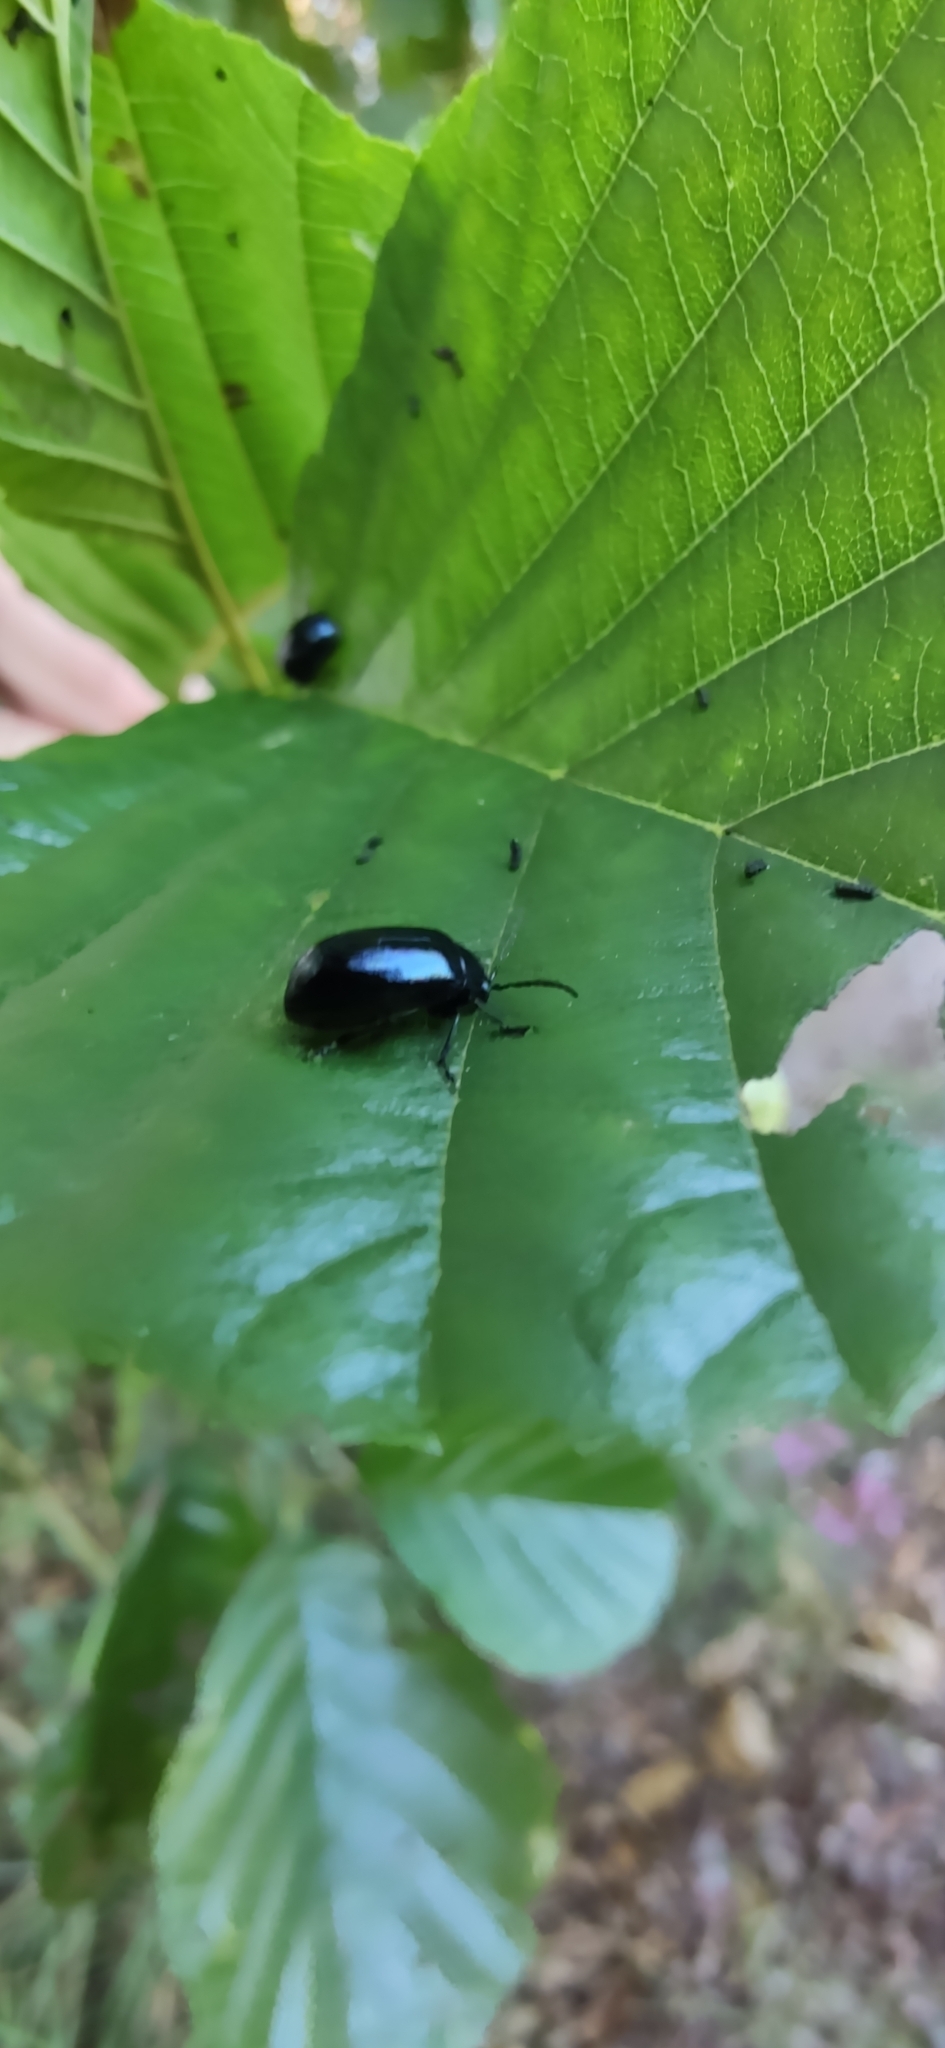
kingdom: Animalia
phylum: Arthropoda
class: Insecta
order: Coleoptera
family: Chrysomelidae
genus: Agelastica
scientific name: Agelastica alni
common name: Alder leaf beetle
